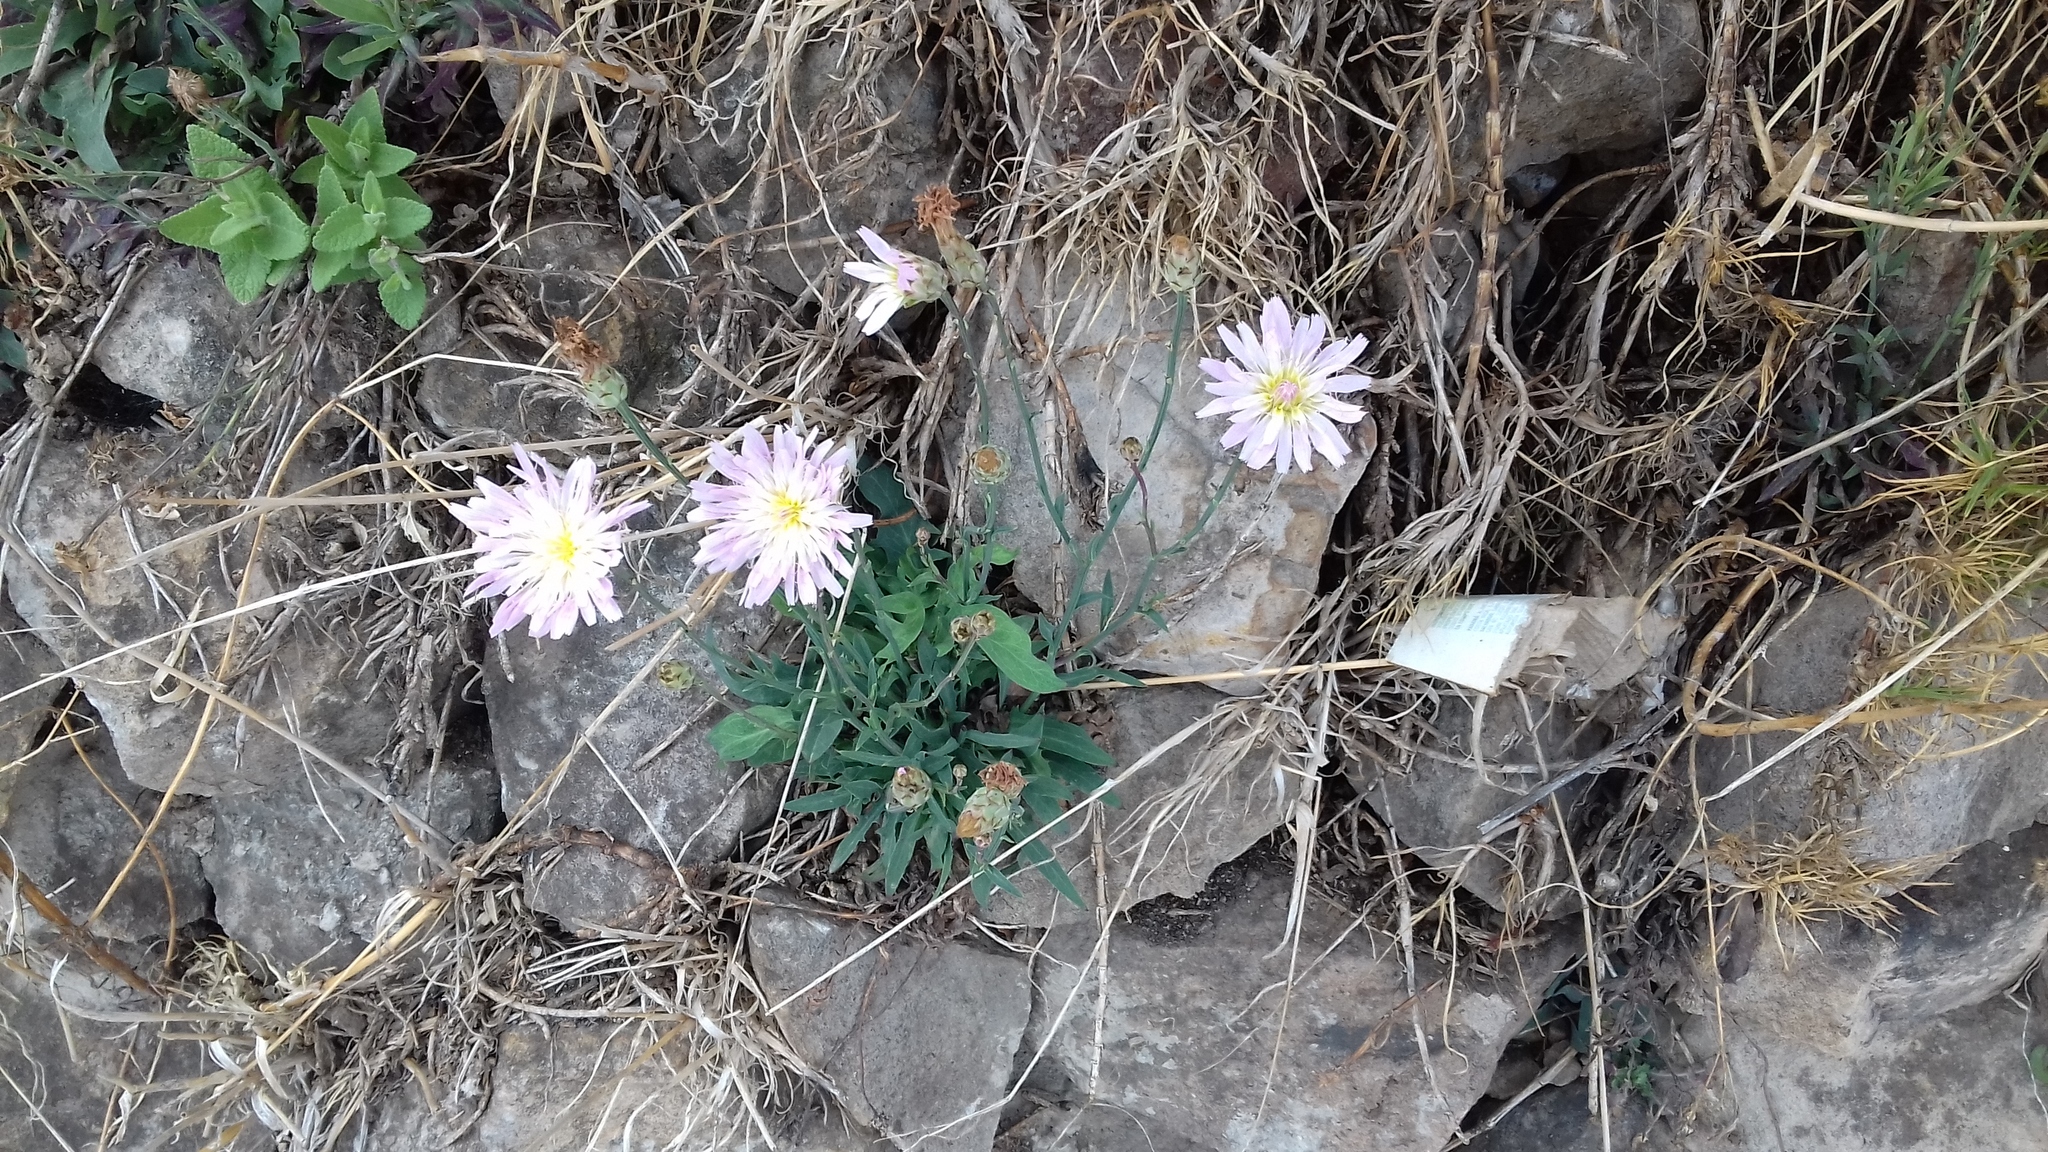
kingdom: Plantae
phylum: Tracheophyta
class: Magnoliopsida
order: Asterales
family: Asteraceae
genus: Pinaropappus
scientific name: Pinaropappus roseus
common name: Rock-lettuce
